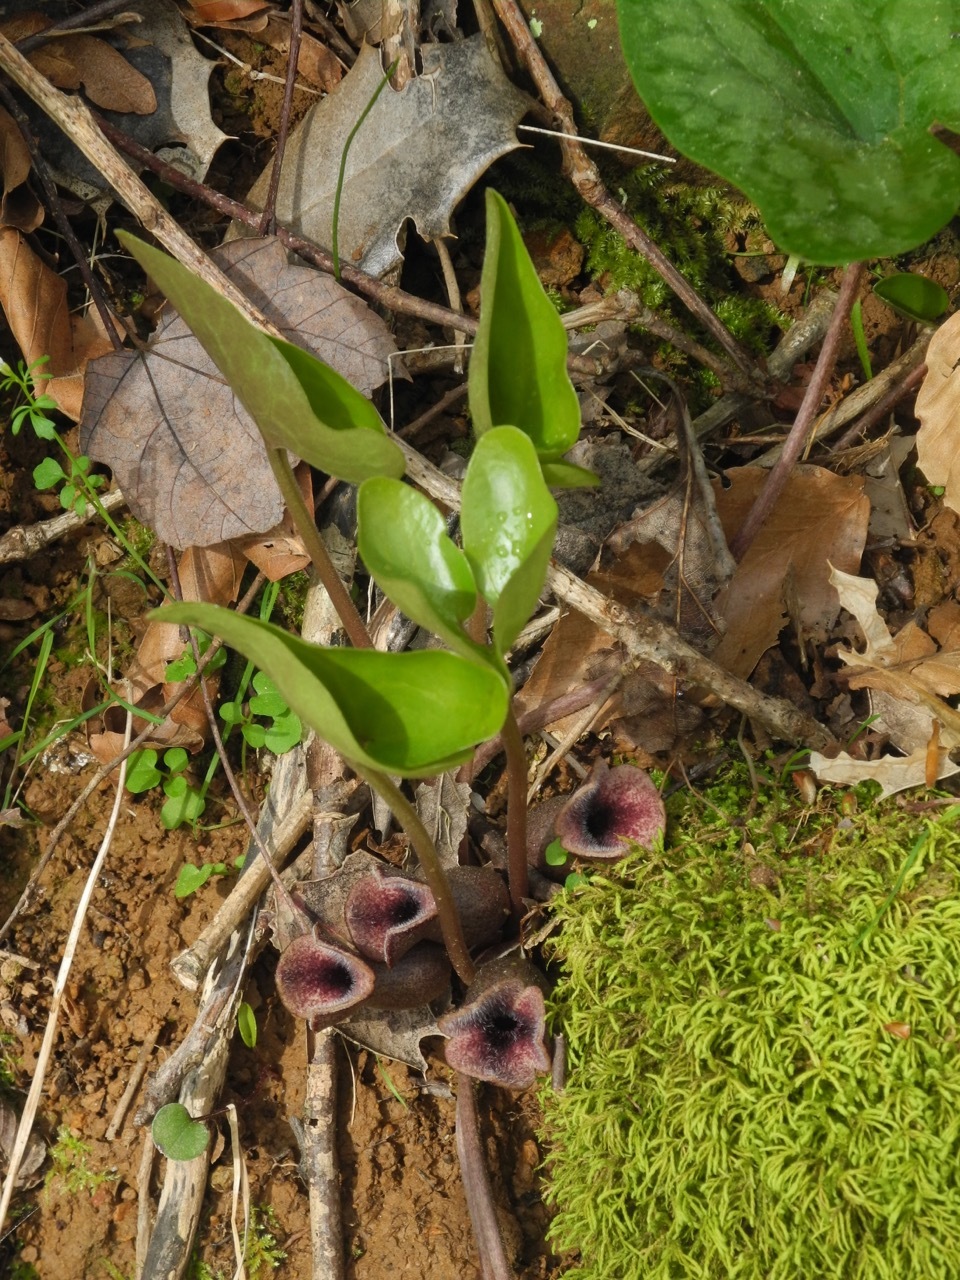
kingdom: Plantae
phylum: Tracheophyta
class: Magnoliopsida
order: Piperales
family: Aristolochiaceae
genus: Hexastylis
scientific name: Hexastylis arifolia
